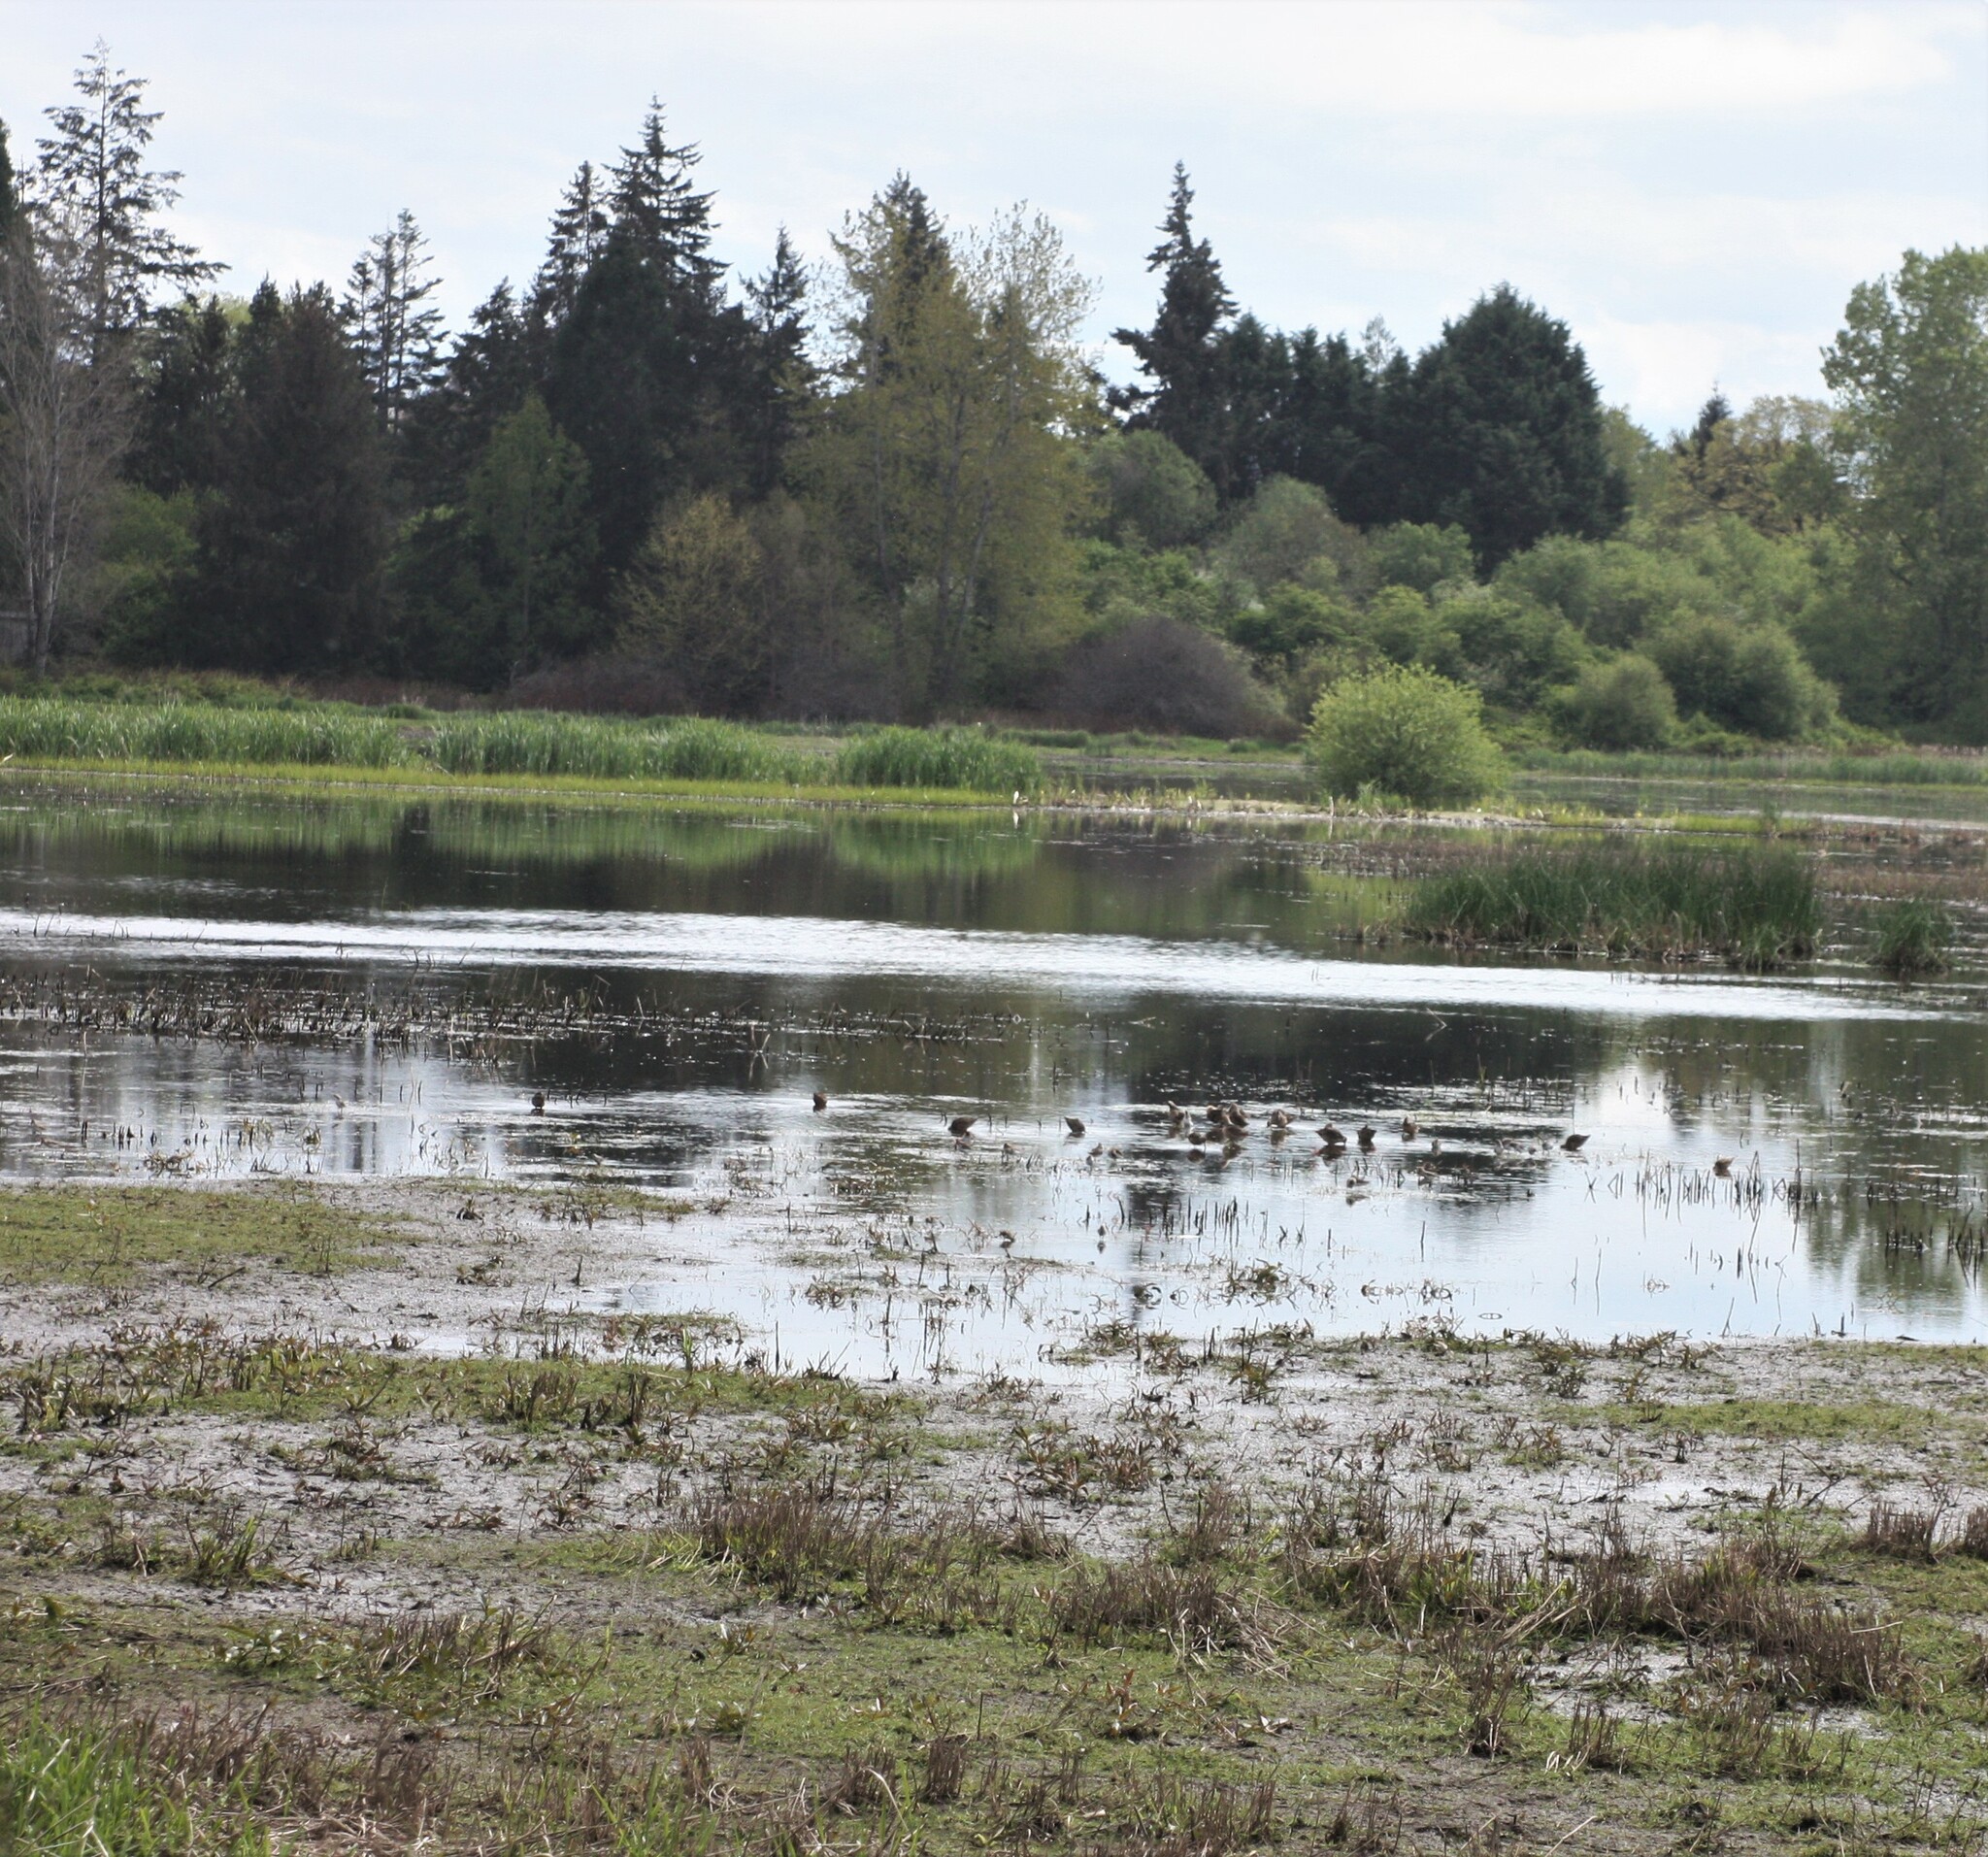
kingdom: Animalia
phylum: Chordata
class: Aves
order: Charadriiformes
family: Scolopacidae
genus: Limnodromus
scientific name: Limnodromus
